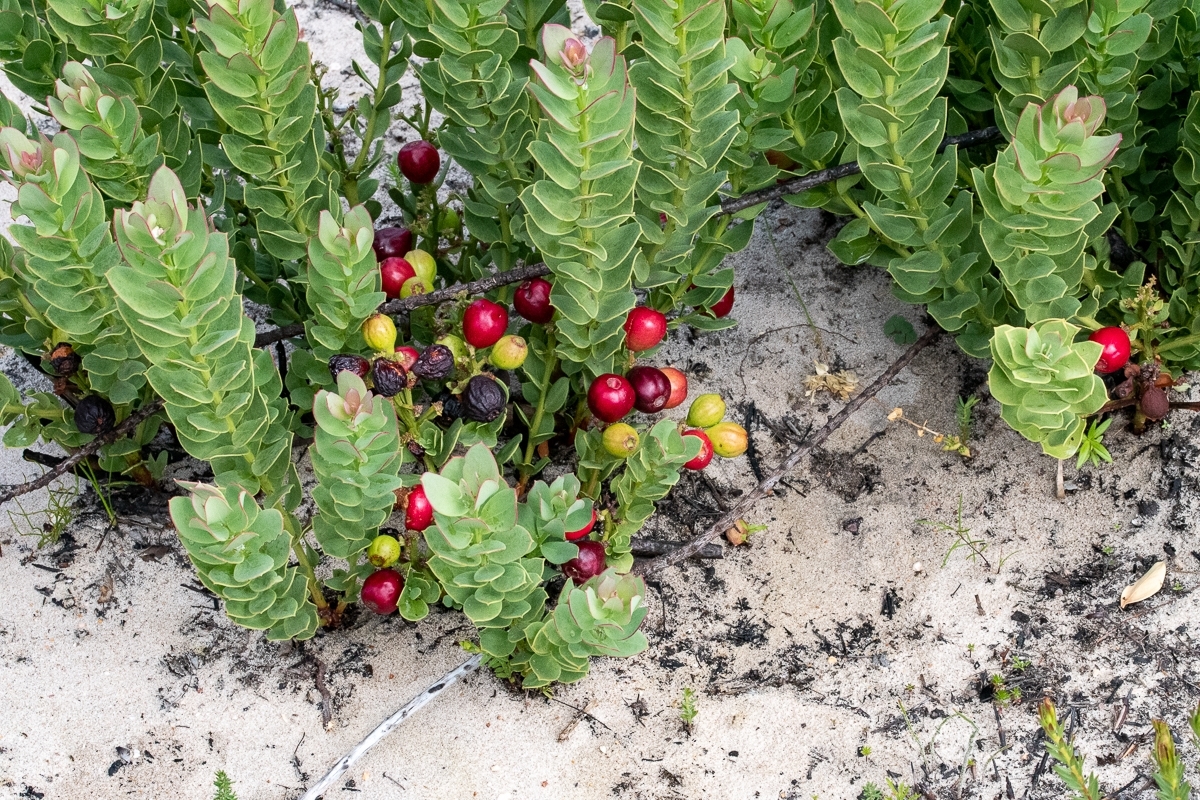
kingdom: Plantae
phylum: Tracheophyta
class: Magnoliopsida
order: Santalales
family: Santalaceae
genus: Osyris
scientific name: Osyris speciosa
